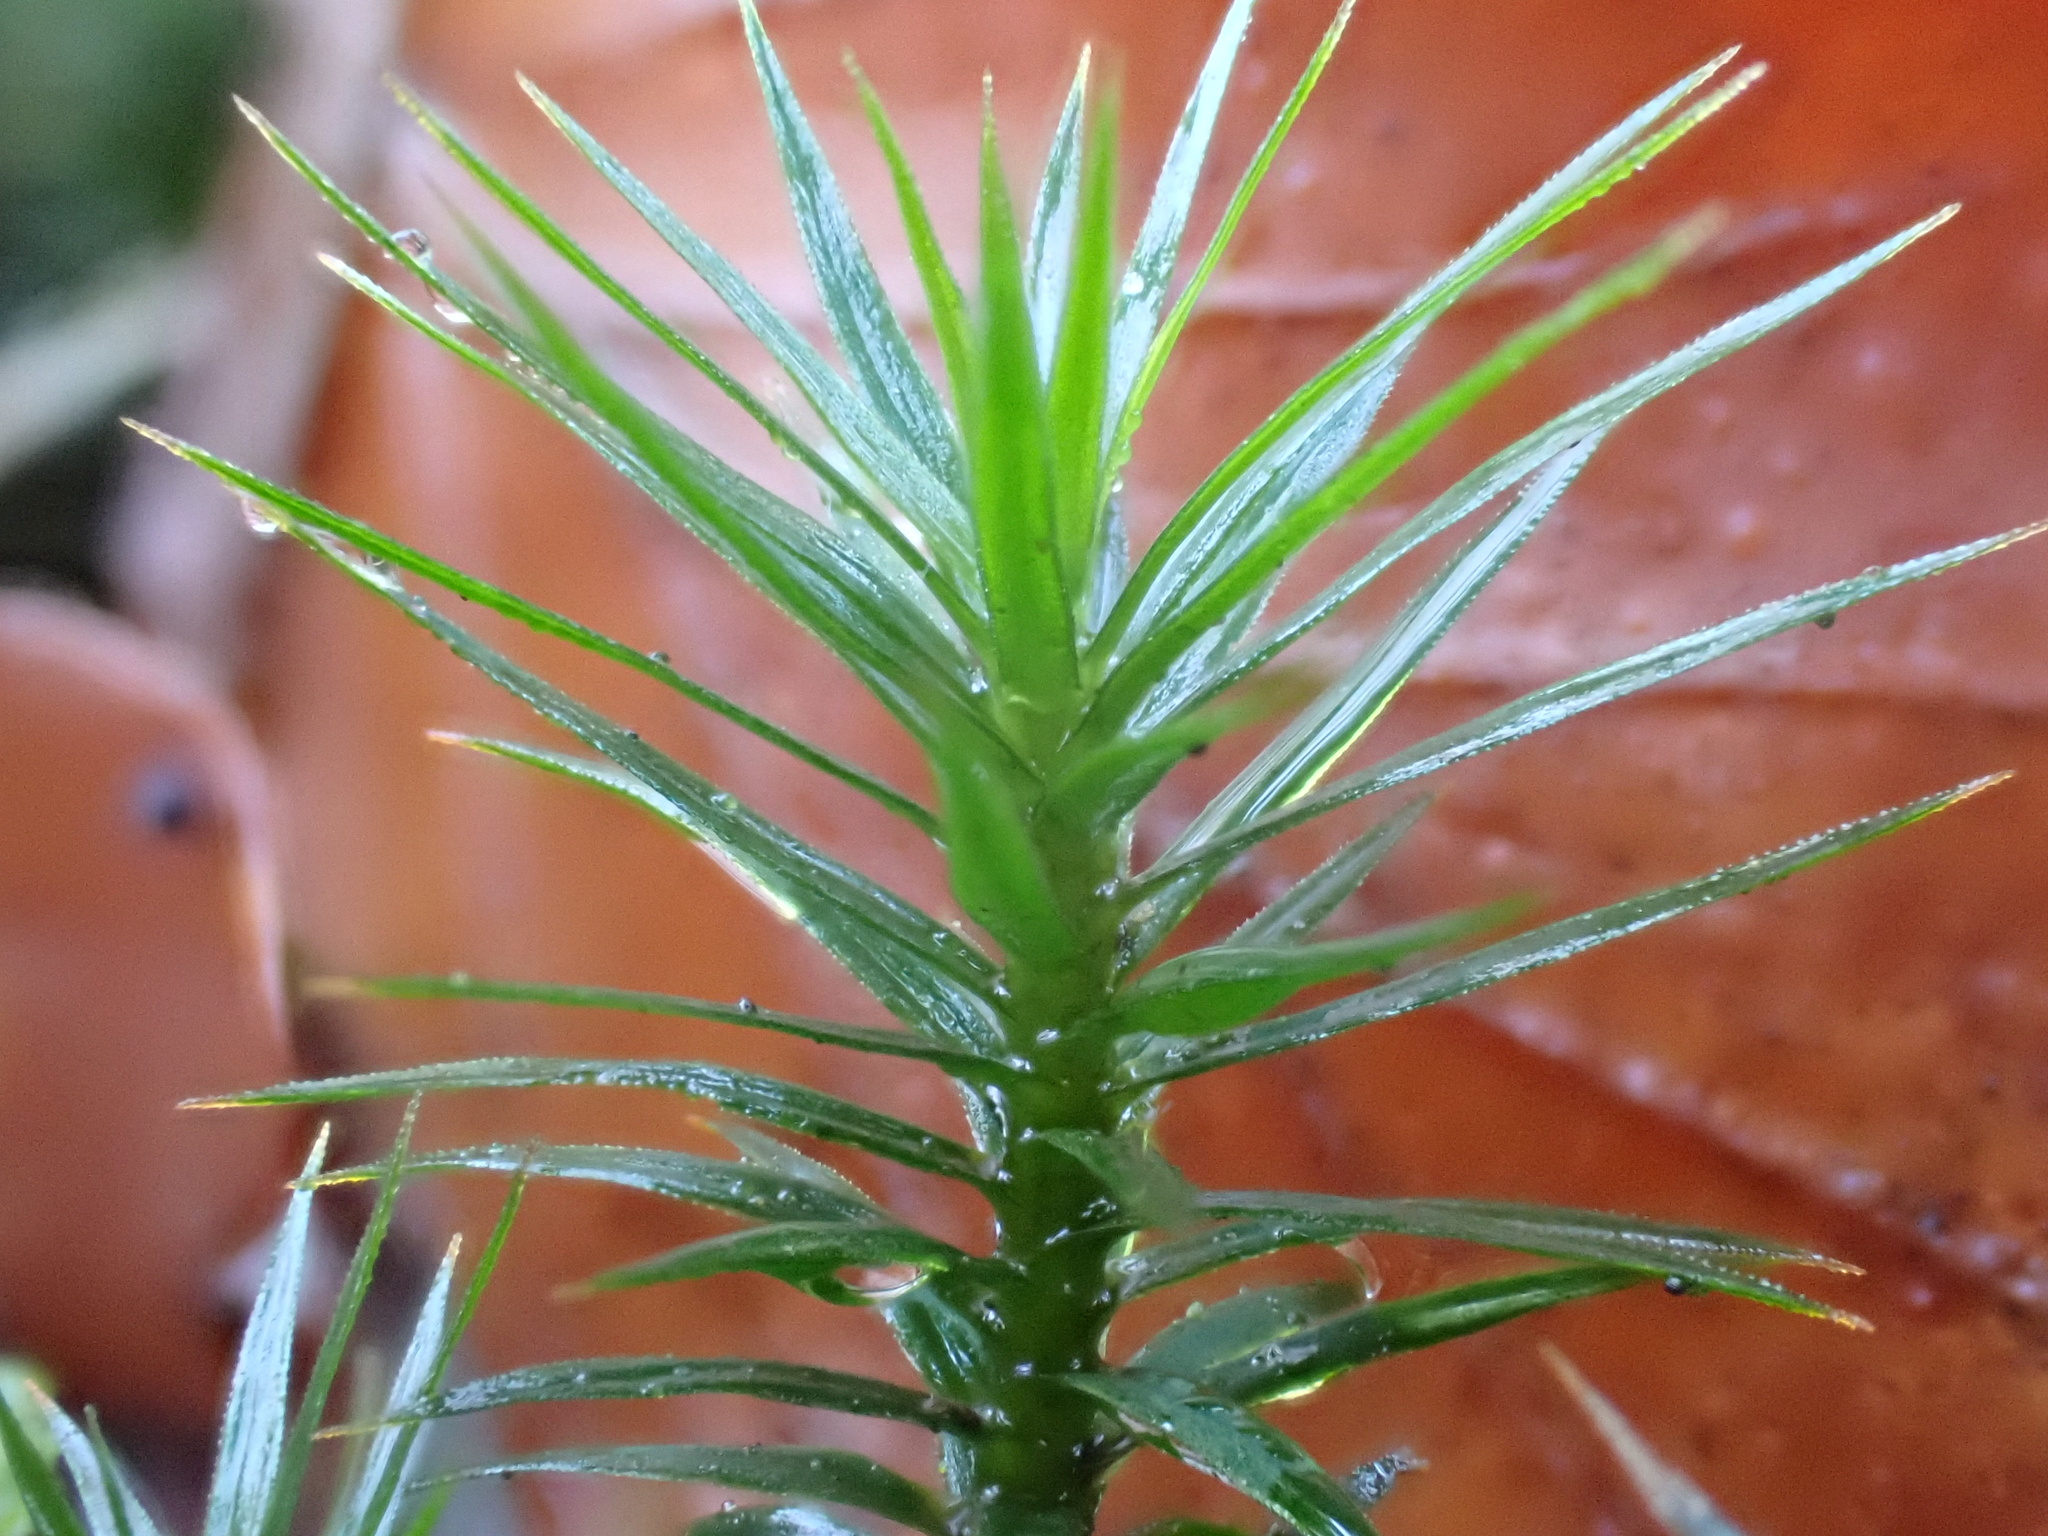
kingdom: Plantae
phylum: Bryophyta
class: Polytrichopsida
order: Polytrichales
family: Polytrichaceae
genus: Polytrichum
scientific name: Polytrichum formosum
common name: Bank haircap moss
